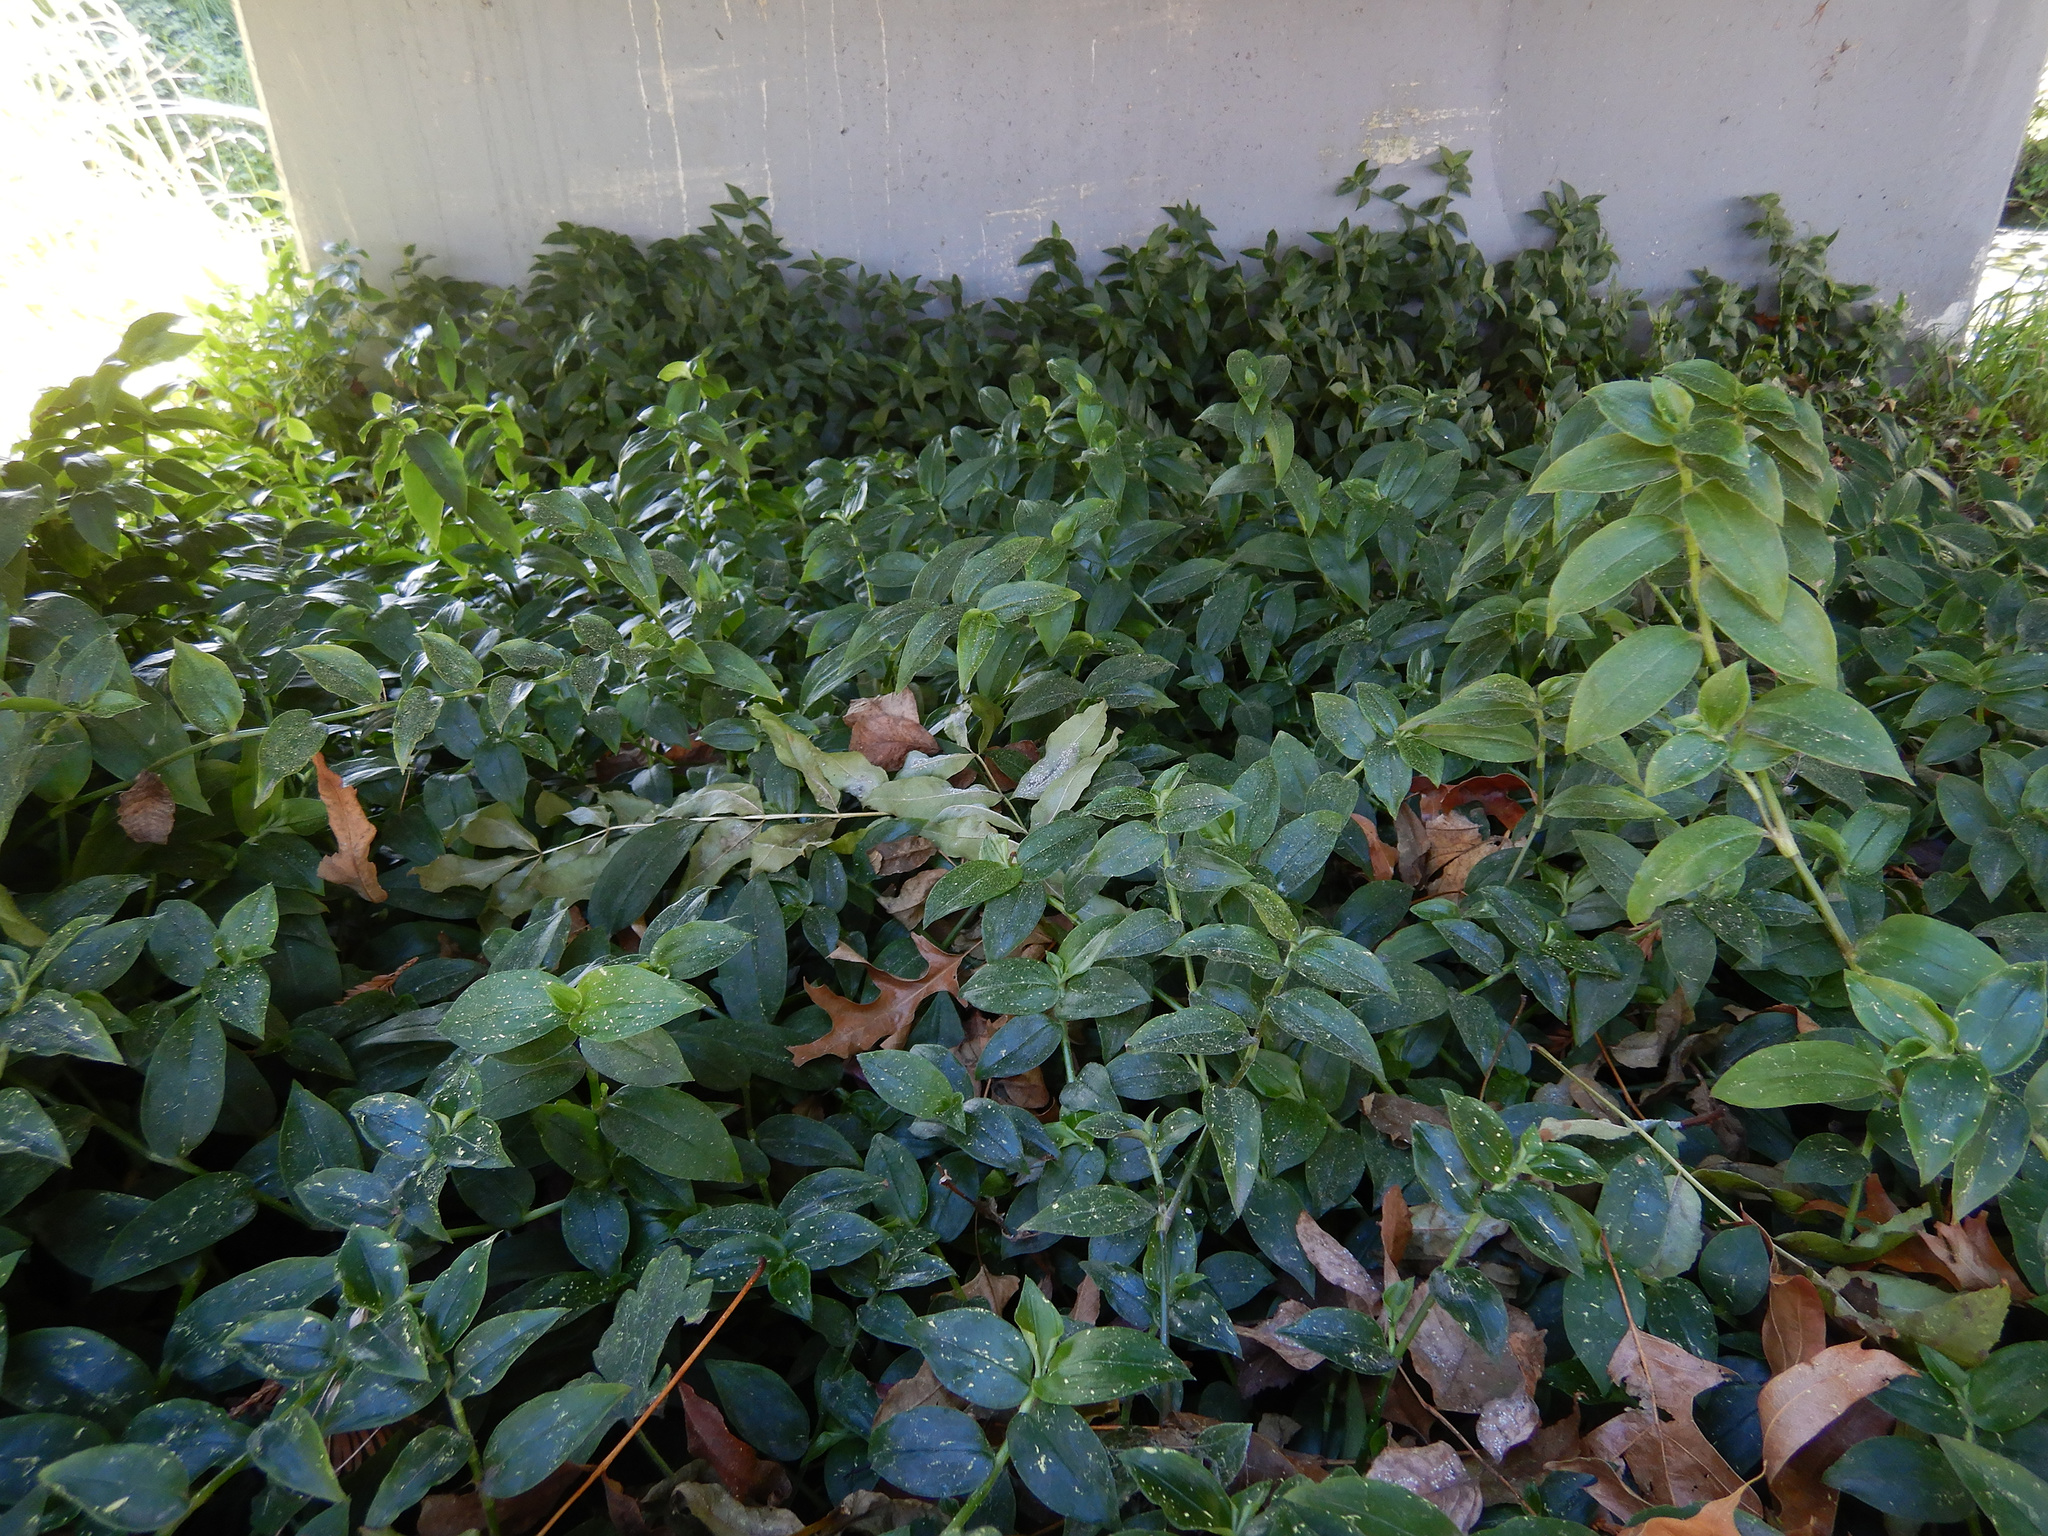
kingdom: Plantae
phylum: Tracheophyta
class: Liliopsida
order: Commelinales
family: Commelinaceae
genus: Tradescantia
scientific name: Tradescantia fluminensis
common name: Wandering-jew
